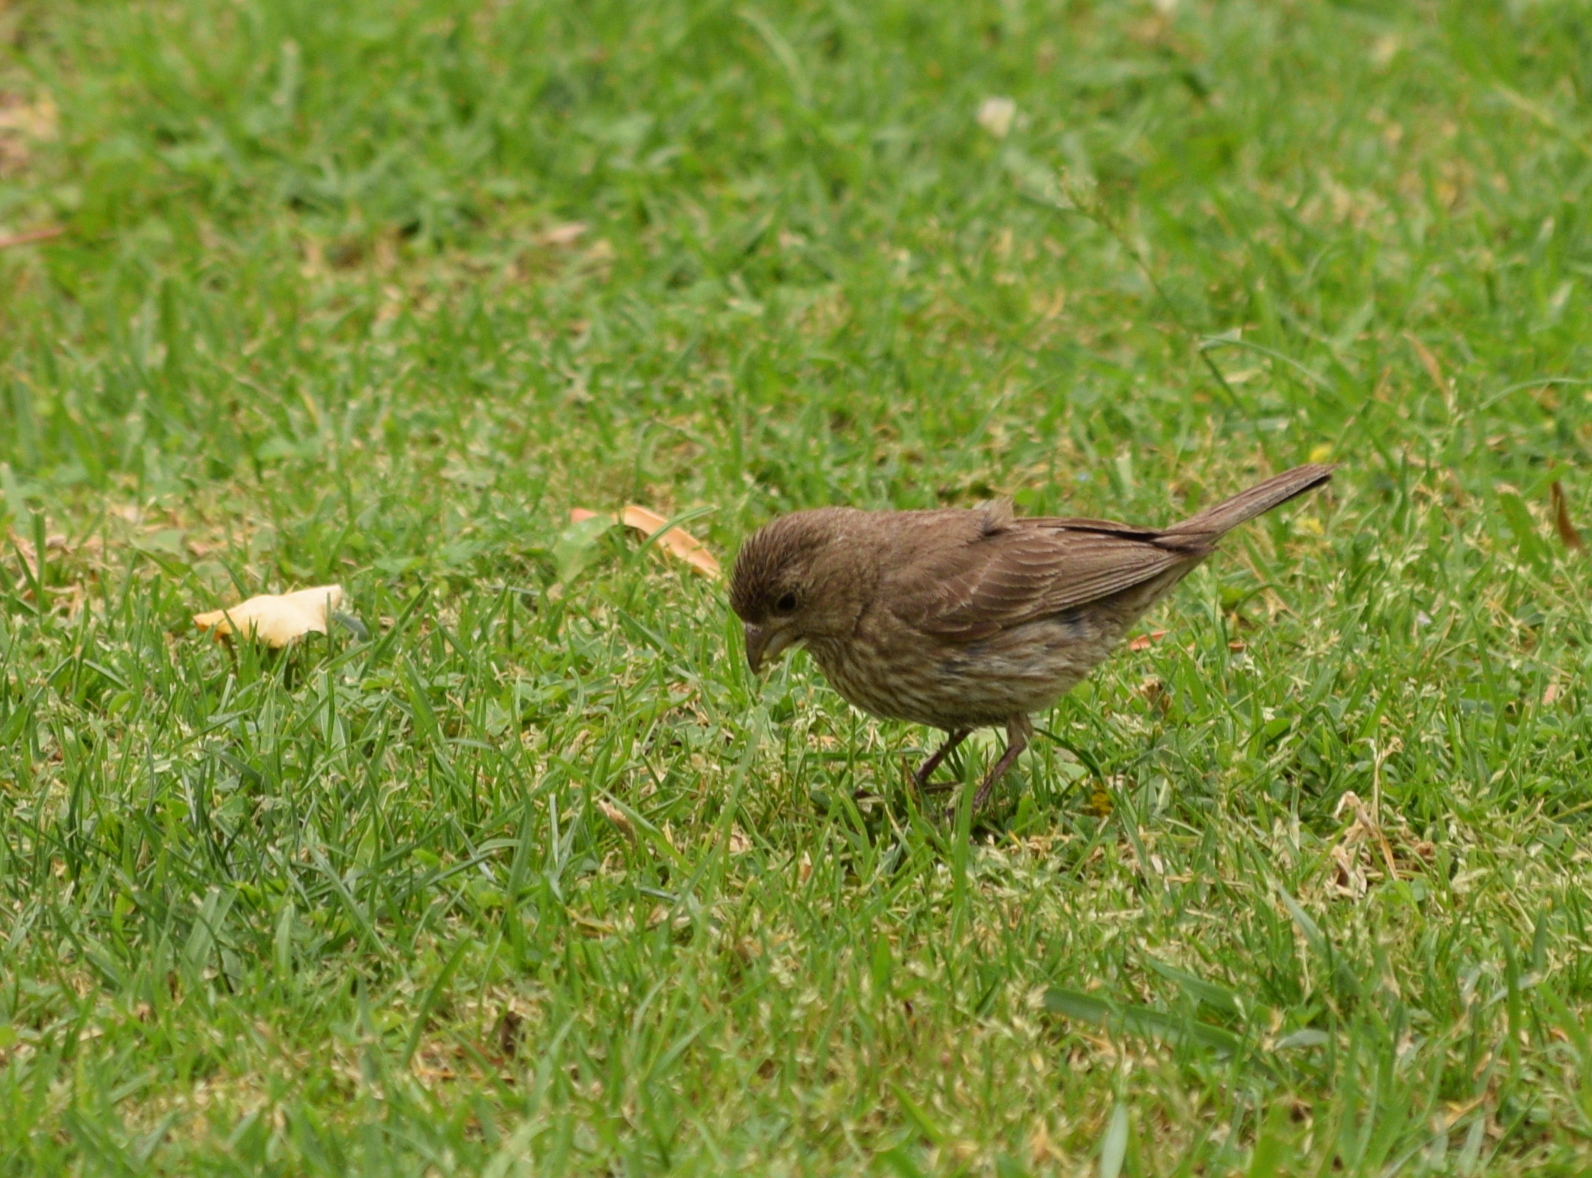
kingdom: Animalia
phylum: Chordata
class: Aves
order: Passeriformes
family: Fringillidae
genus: Haemorhous
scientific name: Haemorhous mexicanus
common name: House finch
